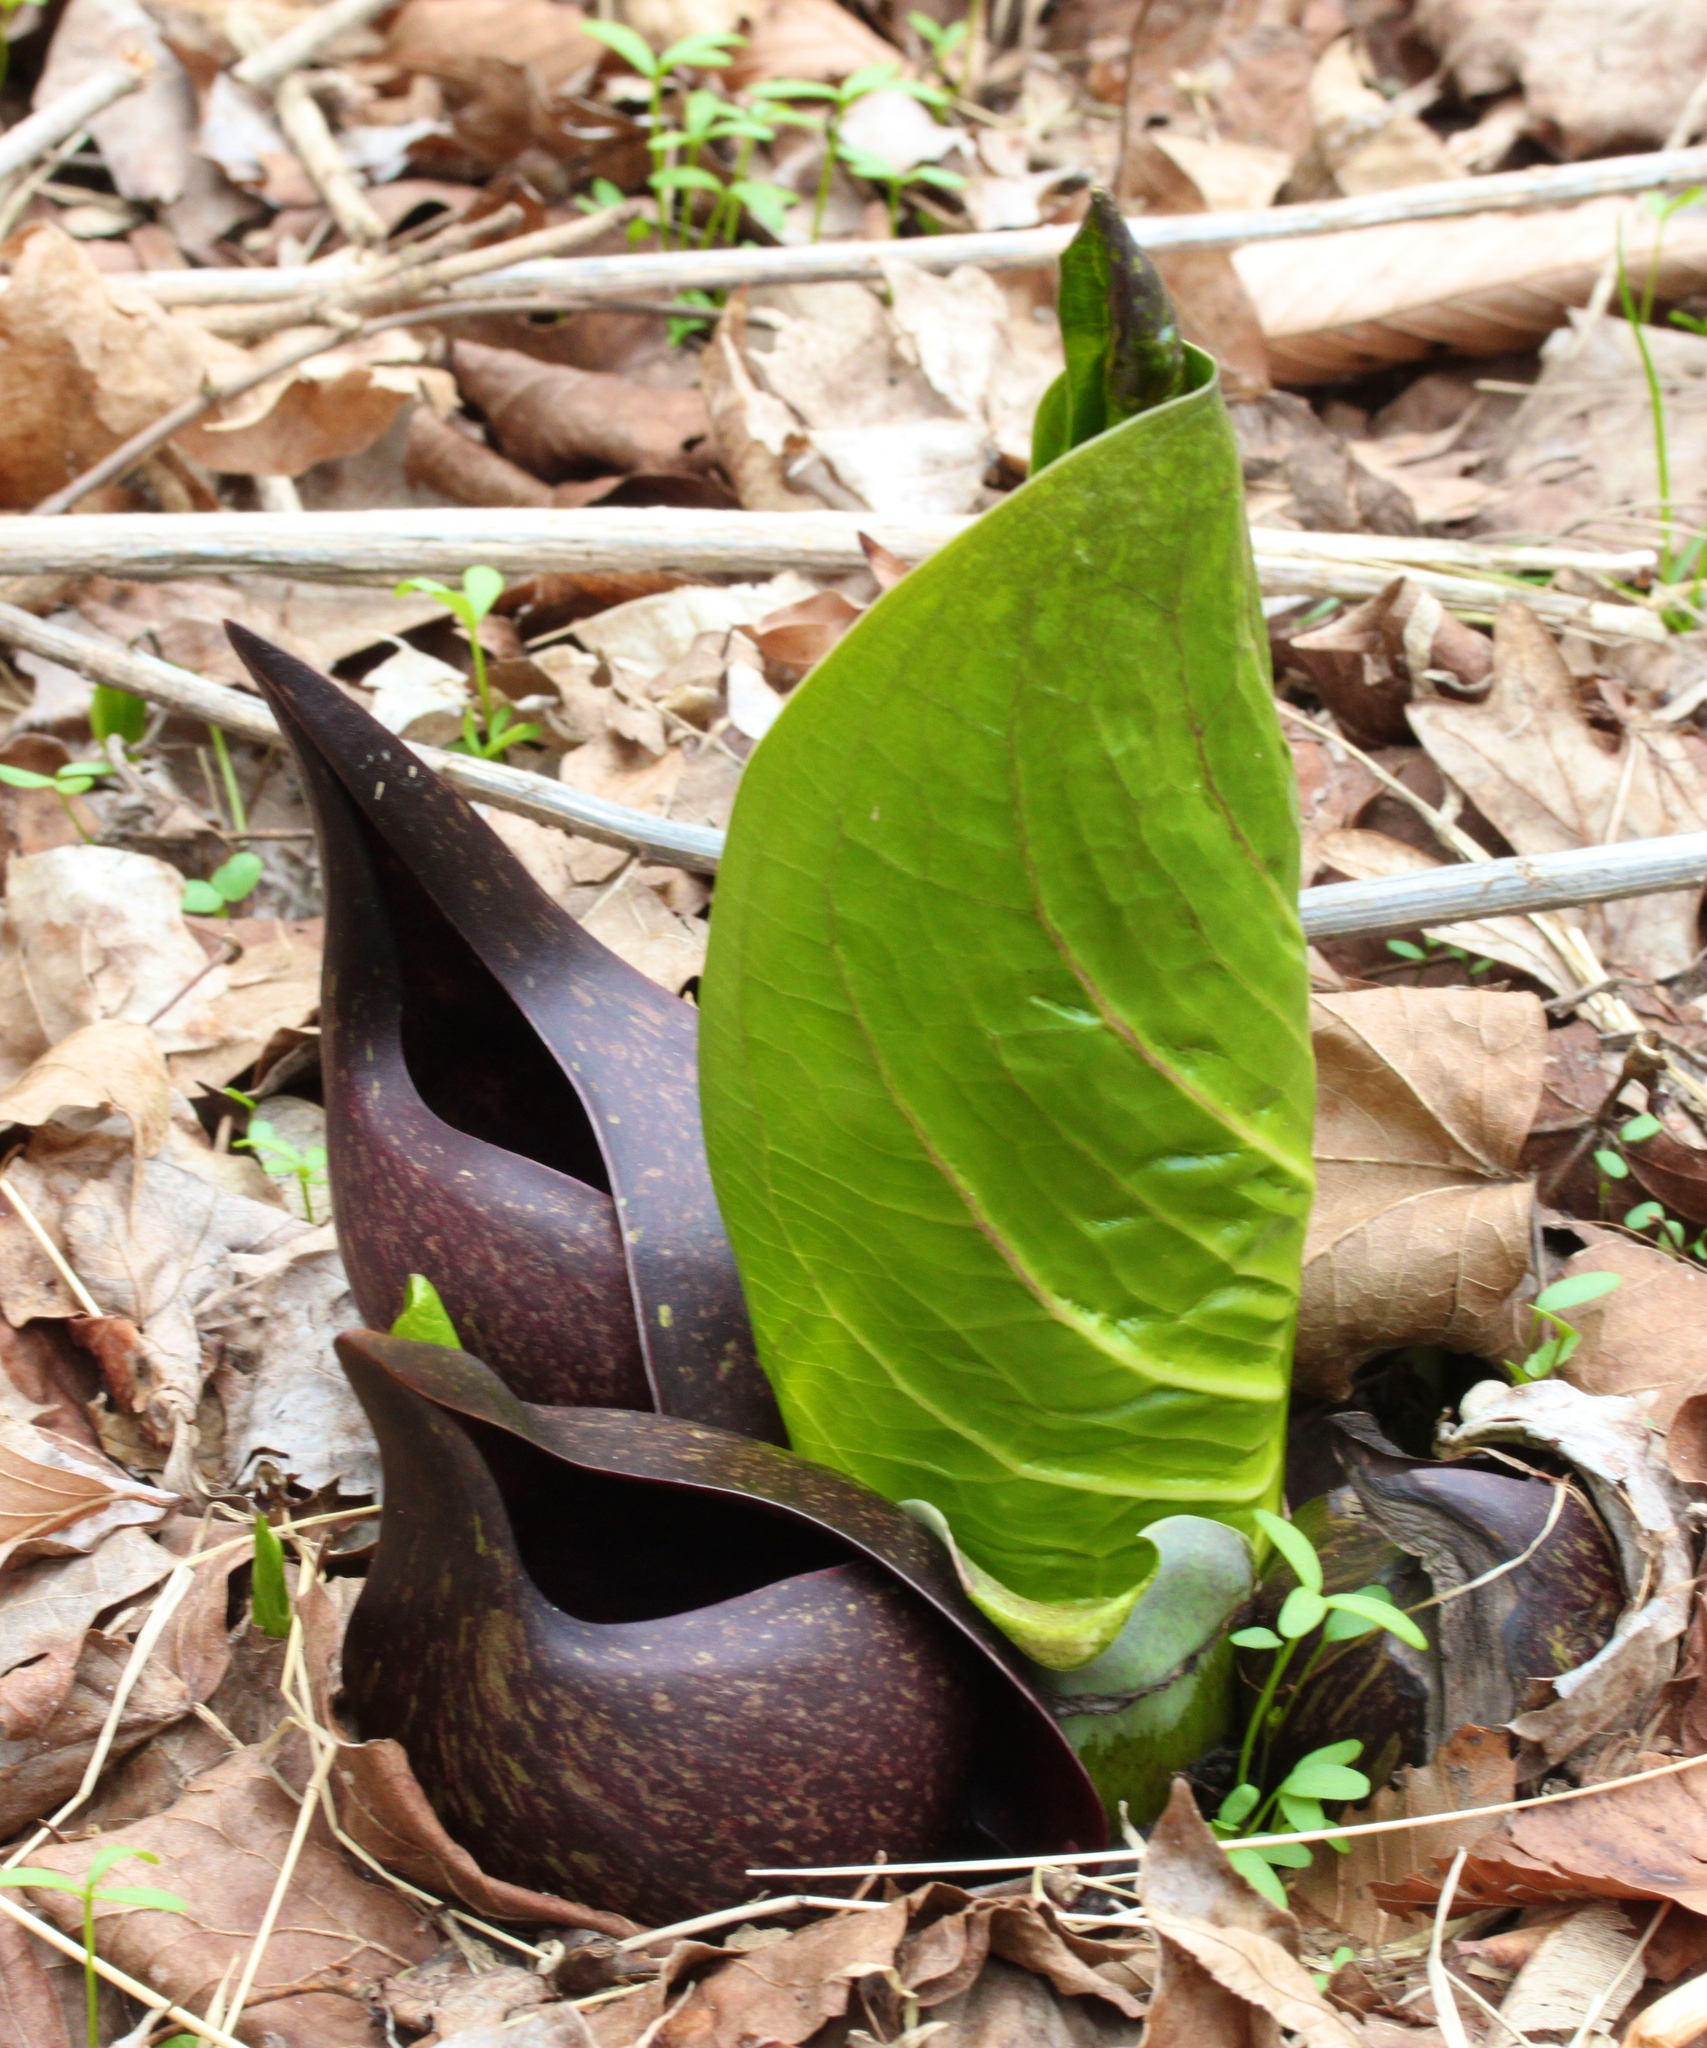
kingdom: Plantae
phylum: Tracheophyta
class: Liliopsida
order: Alismatales
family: Araceae
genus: Symplocarpus
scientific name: Symplocarpus foetidus
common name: Eastern skunk cabbage
